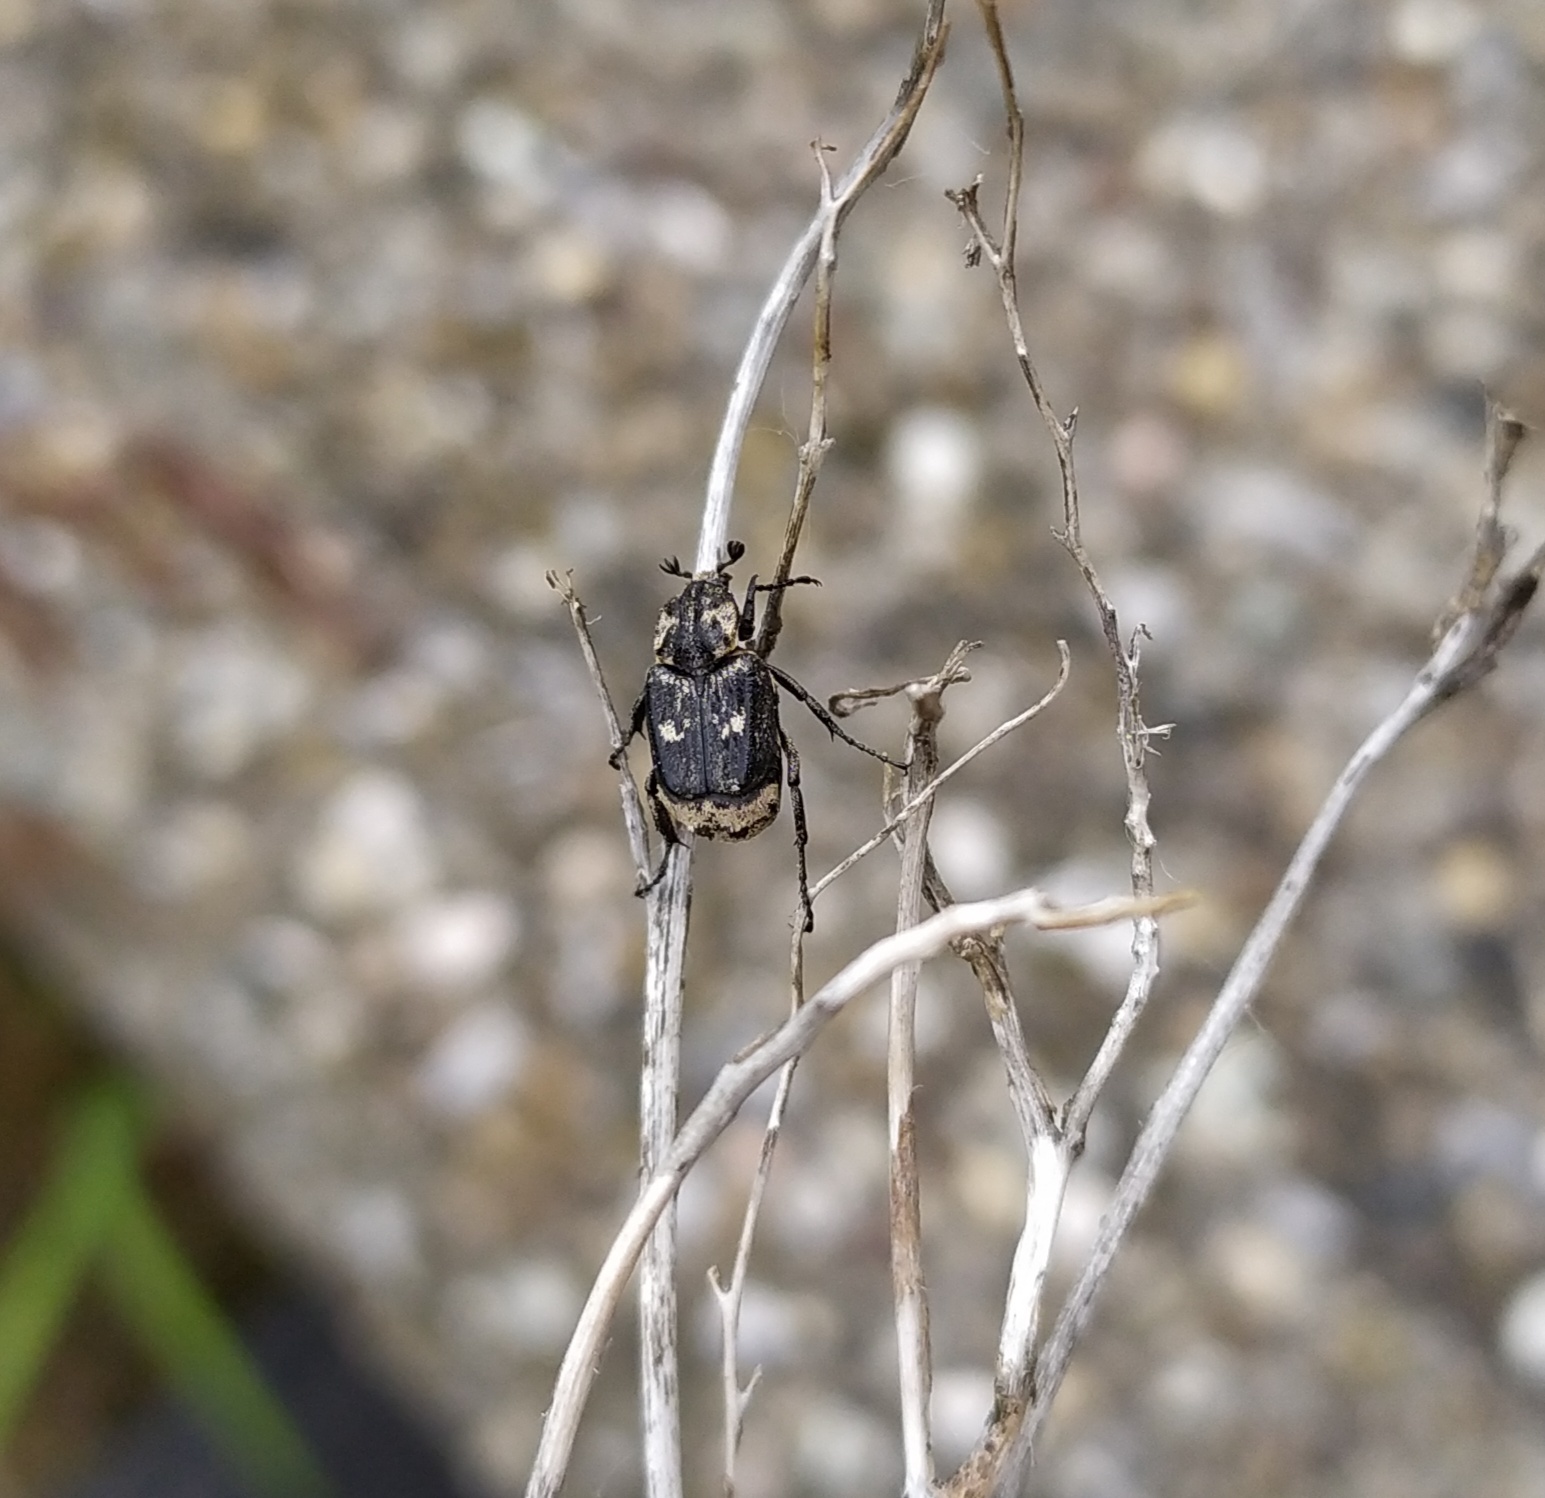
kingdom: Animalia
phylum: Arthropoda
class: Insecta
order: Coleoptera
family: Scarabaeidae
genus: Valgus
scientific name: Valgus hemipterus
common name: Bug flower chafer
